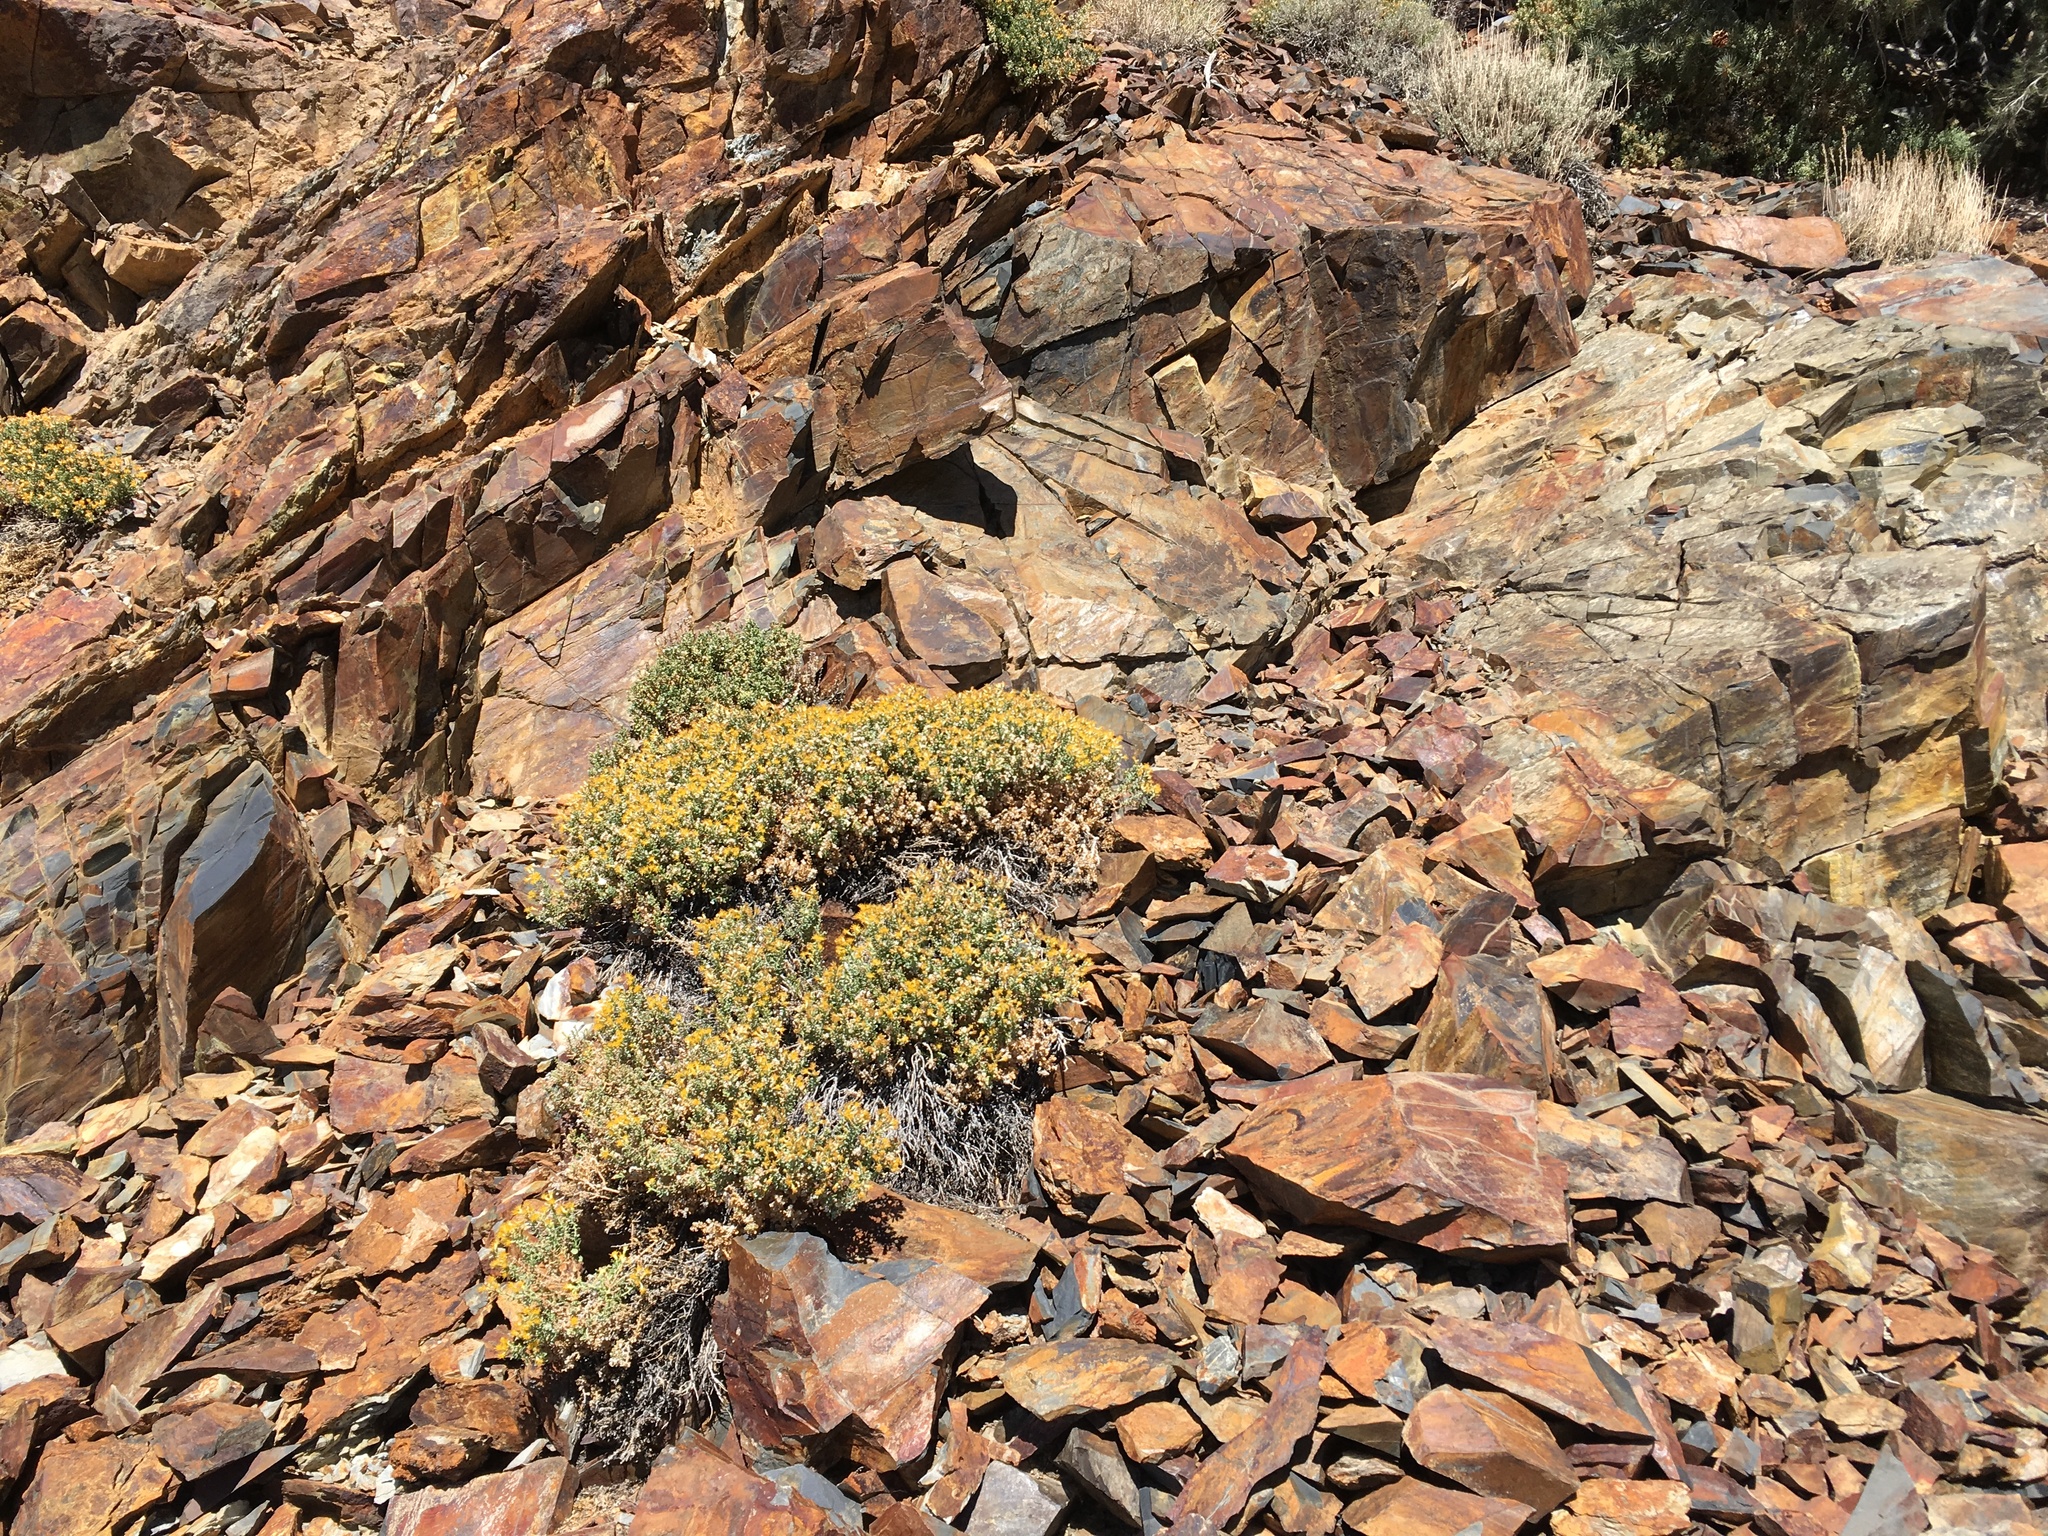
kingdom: Plantae
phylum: Tracheophyta
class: Magnoliopsida
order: Asterales
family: Asteraceae
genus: Ericameria
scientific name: Ericameria cuneata
